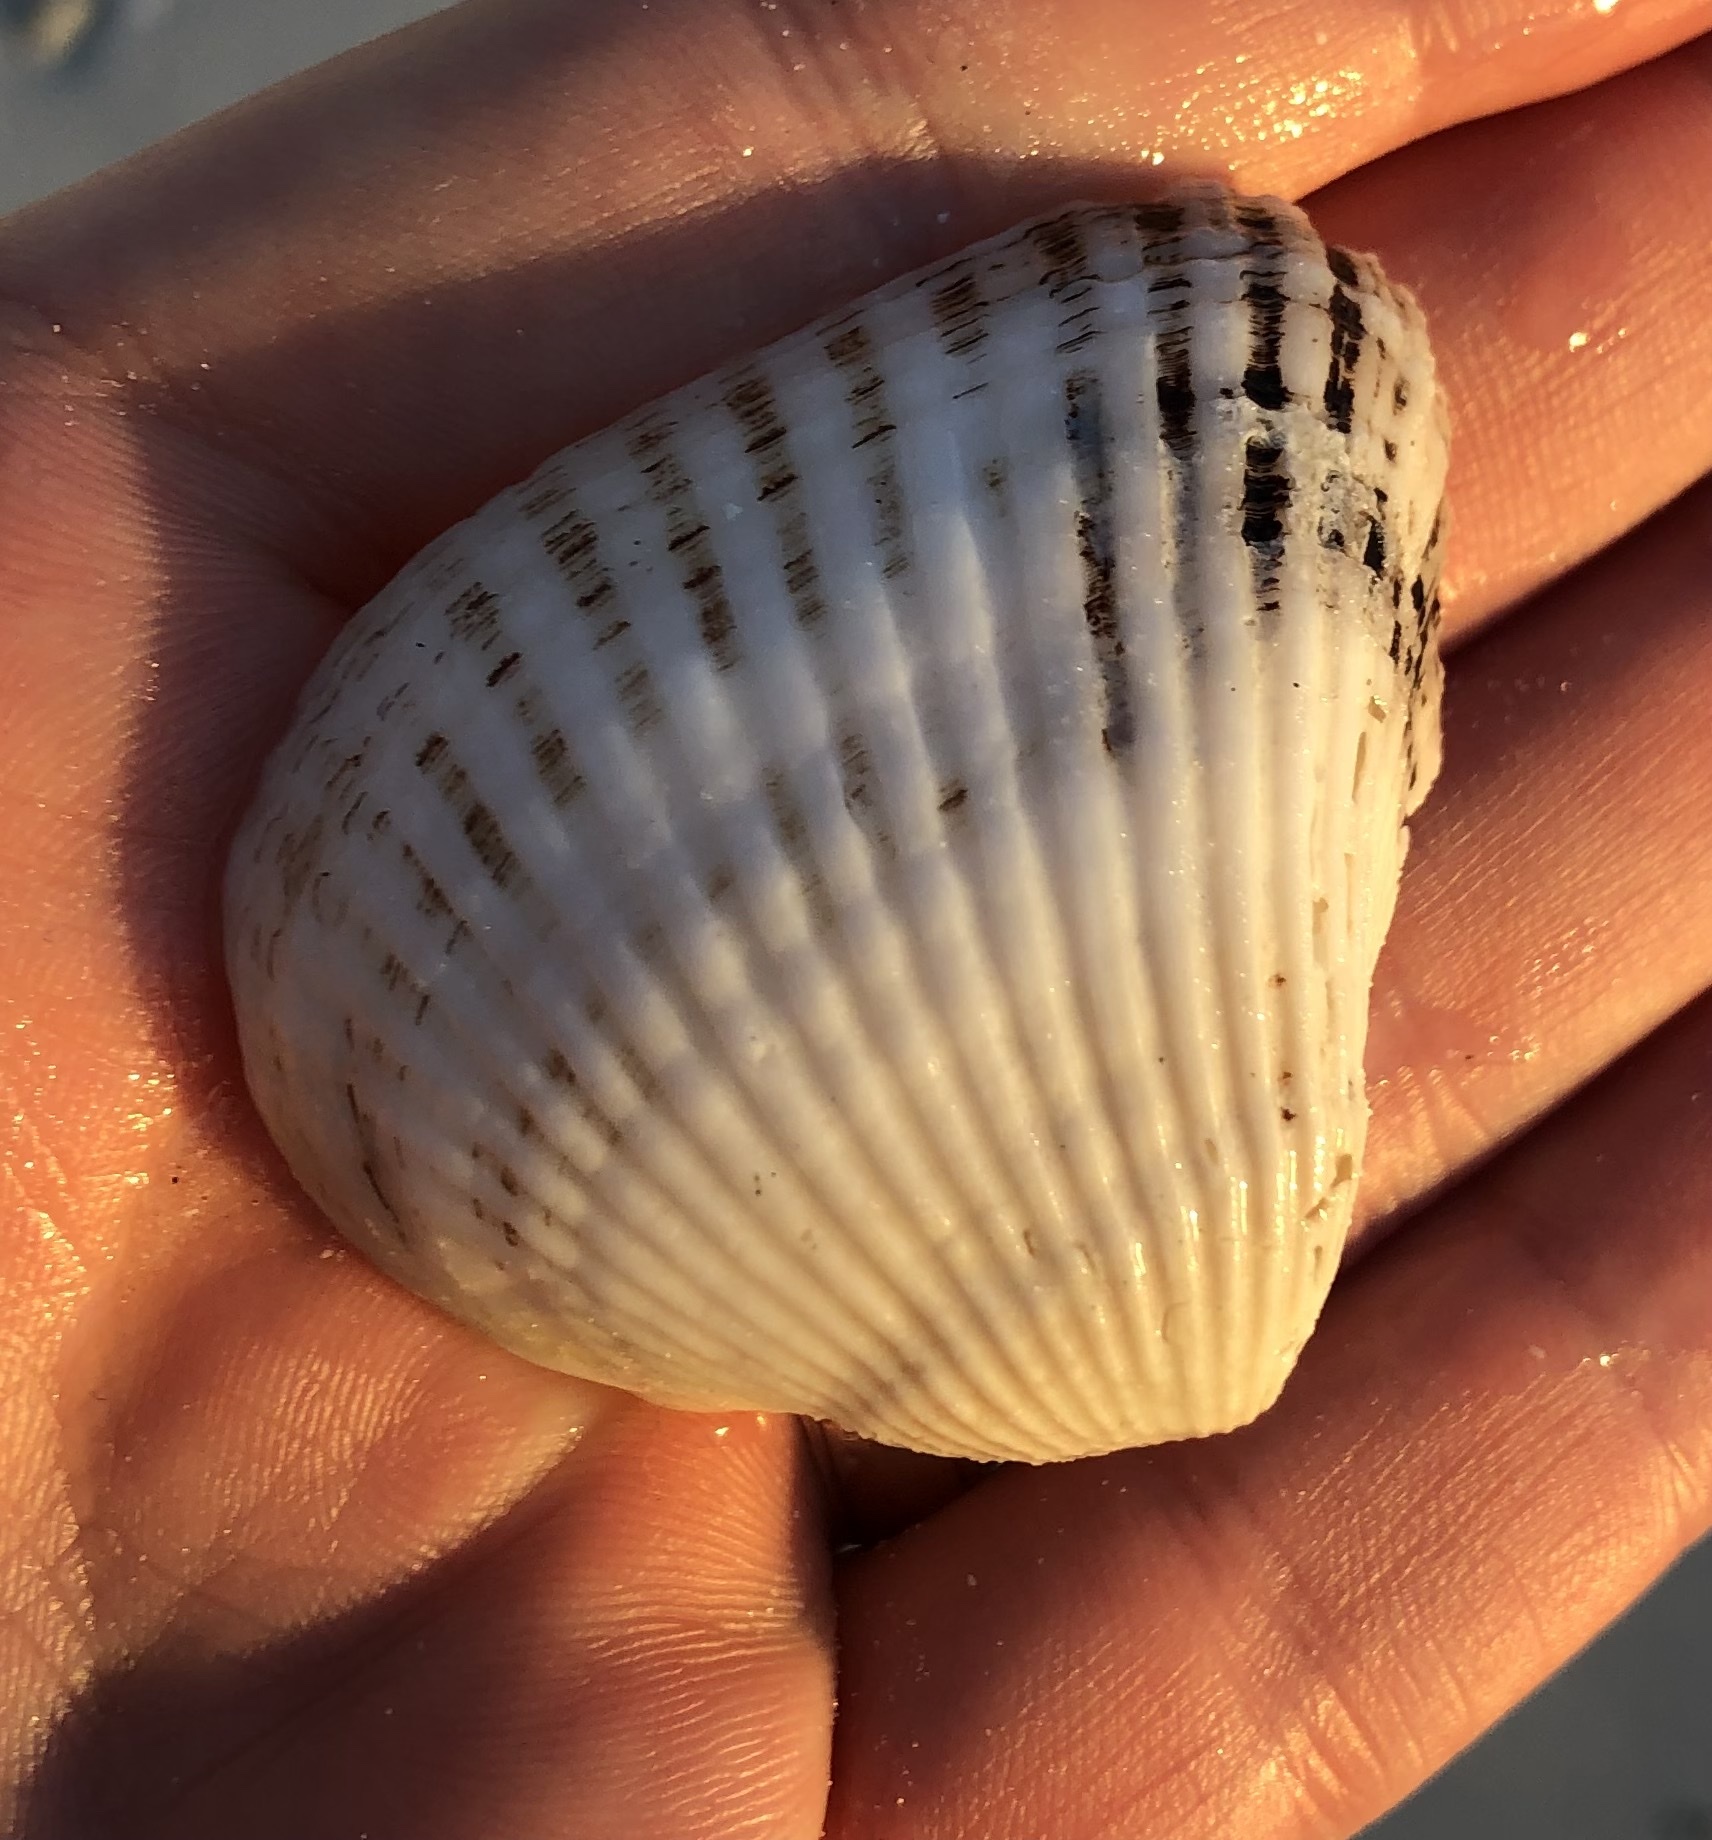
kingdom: Animalia
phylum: Mollusca
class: Bivalvia
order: Arcida
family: Noetiidae
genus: Noetia
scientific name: Noetia ponderosa
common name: Ponderous ark
